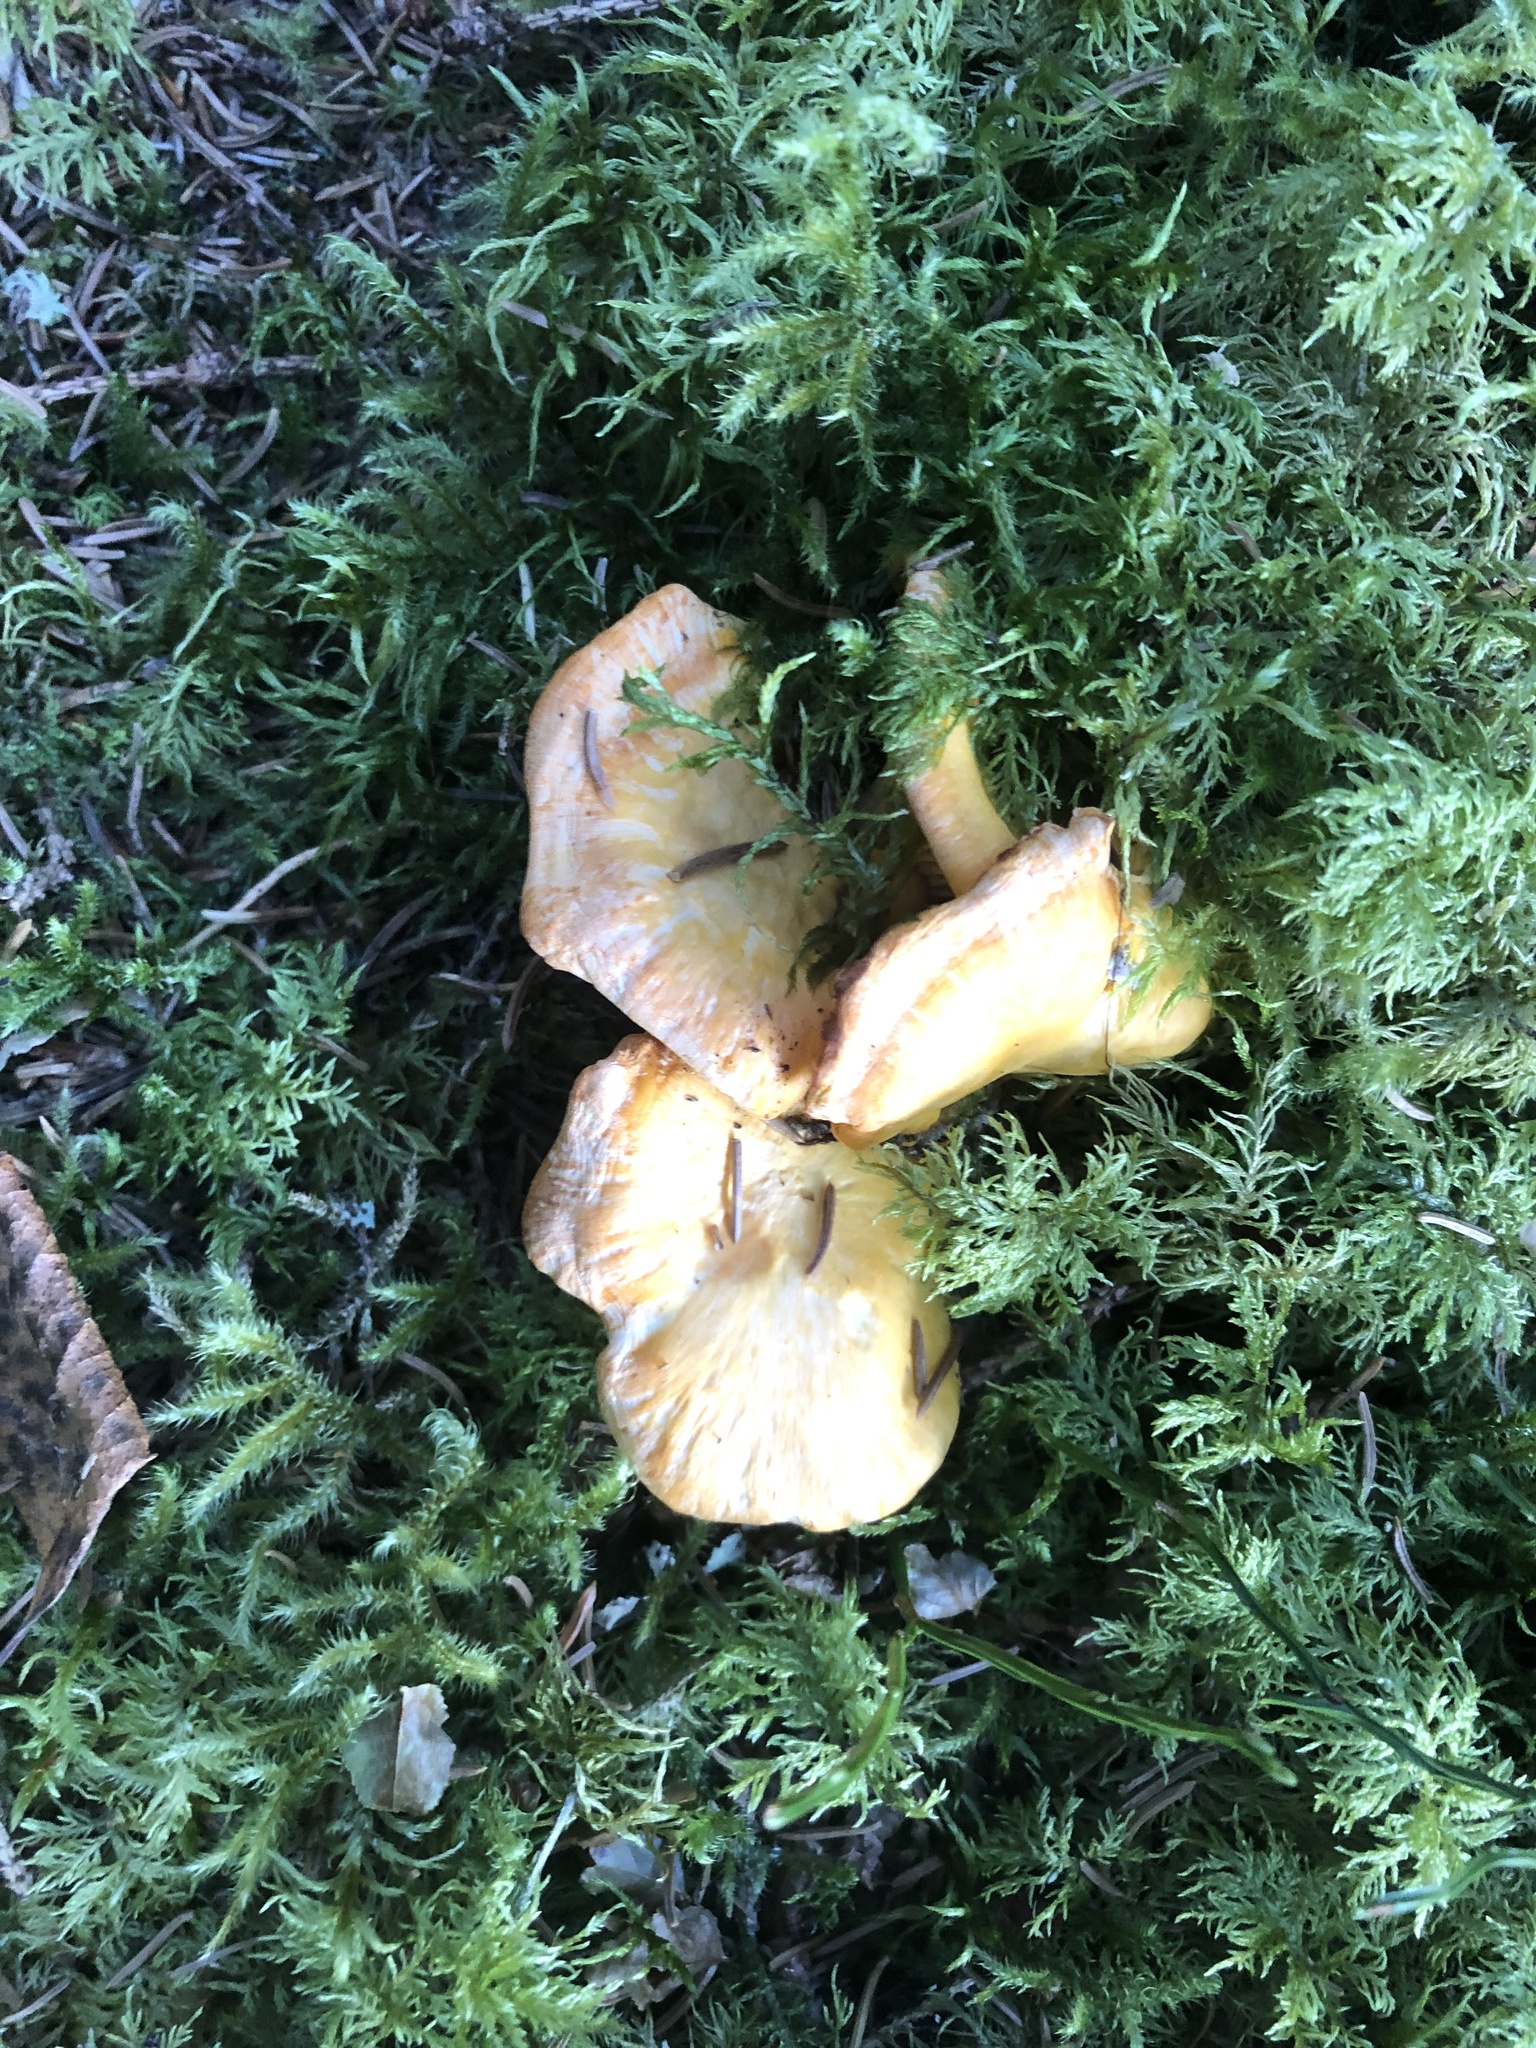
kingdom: Fungi
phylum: Basidiomycota
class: Agaricomycetes
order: Cantharellales
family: Hydnaceae
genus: Cantharellus
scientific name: Cantharellus cibarius
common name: Chanterelle
